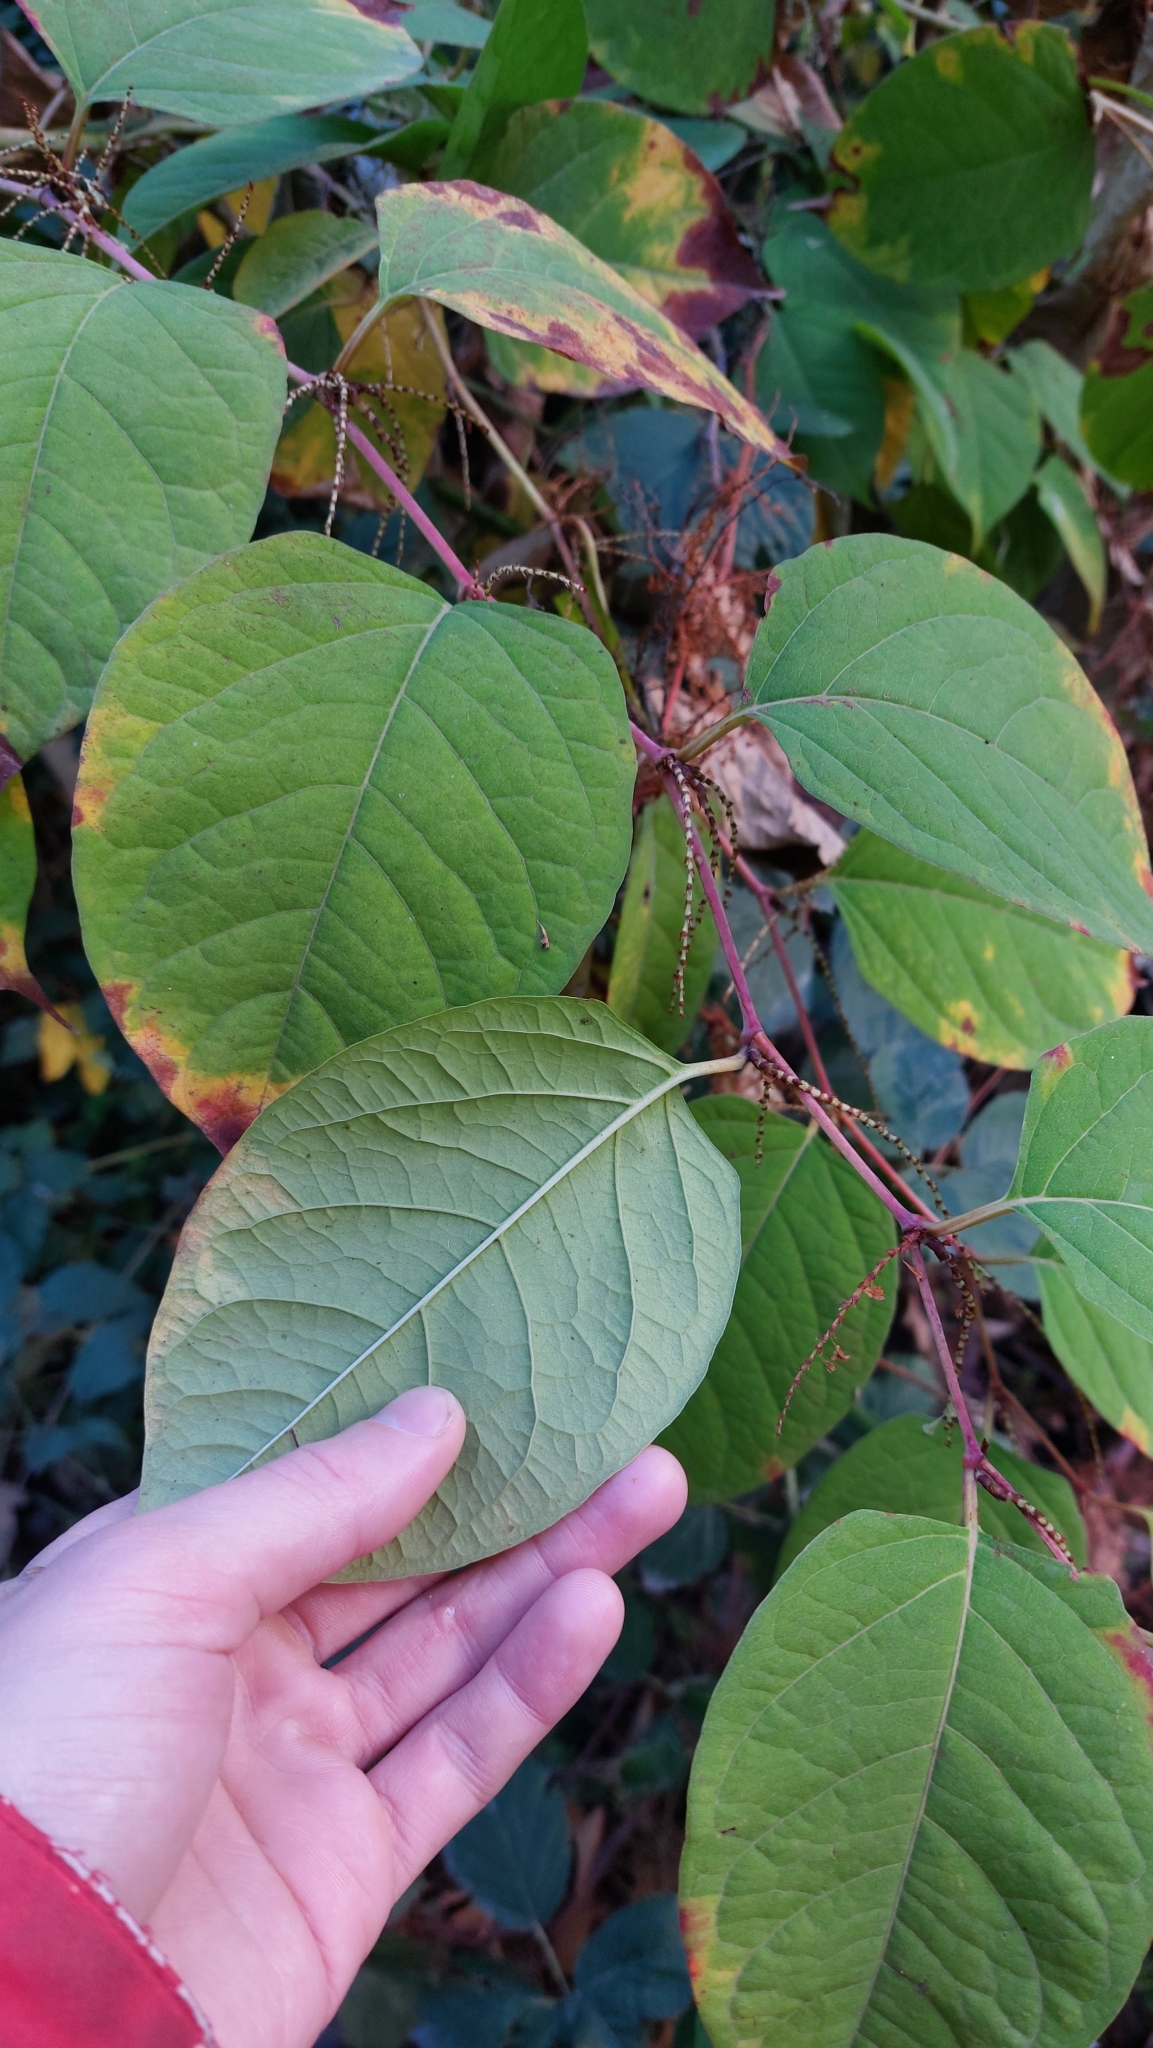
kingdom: Plantae
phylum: Tracheophyta
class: Magnoliopsida
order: Caryophyllales
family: Polygonaceae
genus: Reynoutria
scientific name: Reynoutria japonica
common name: Japanese knotweed
